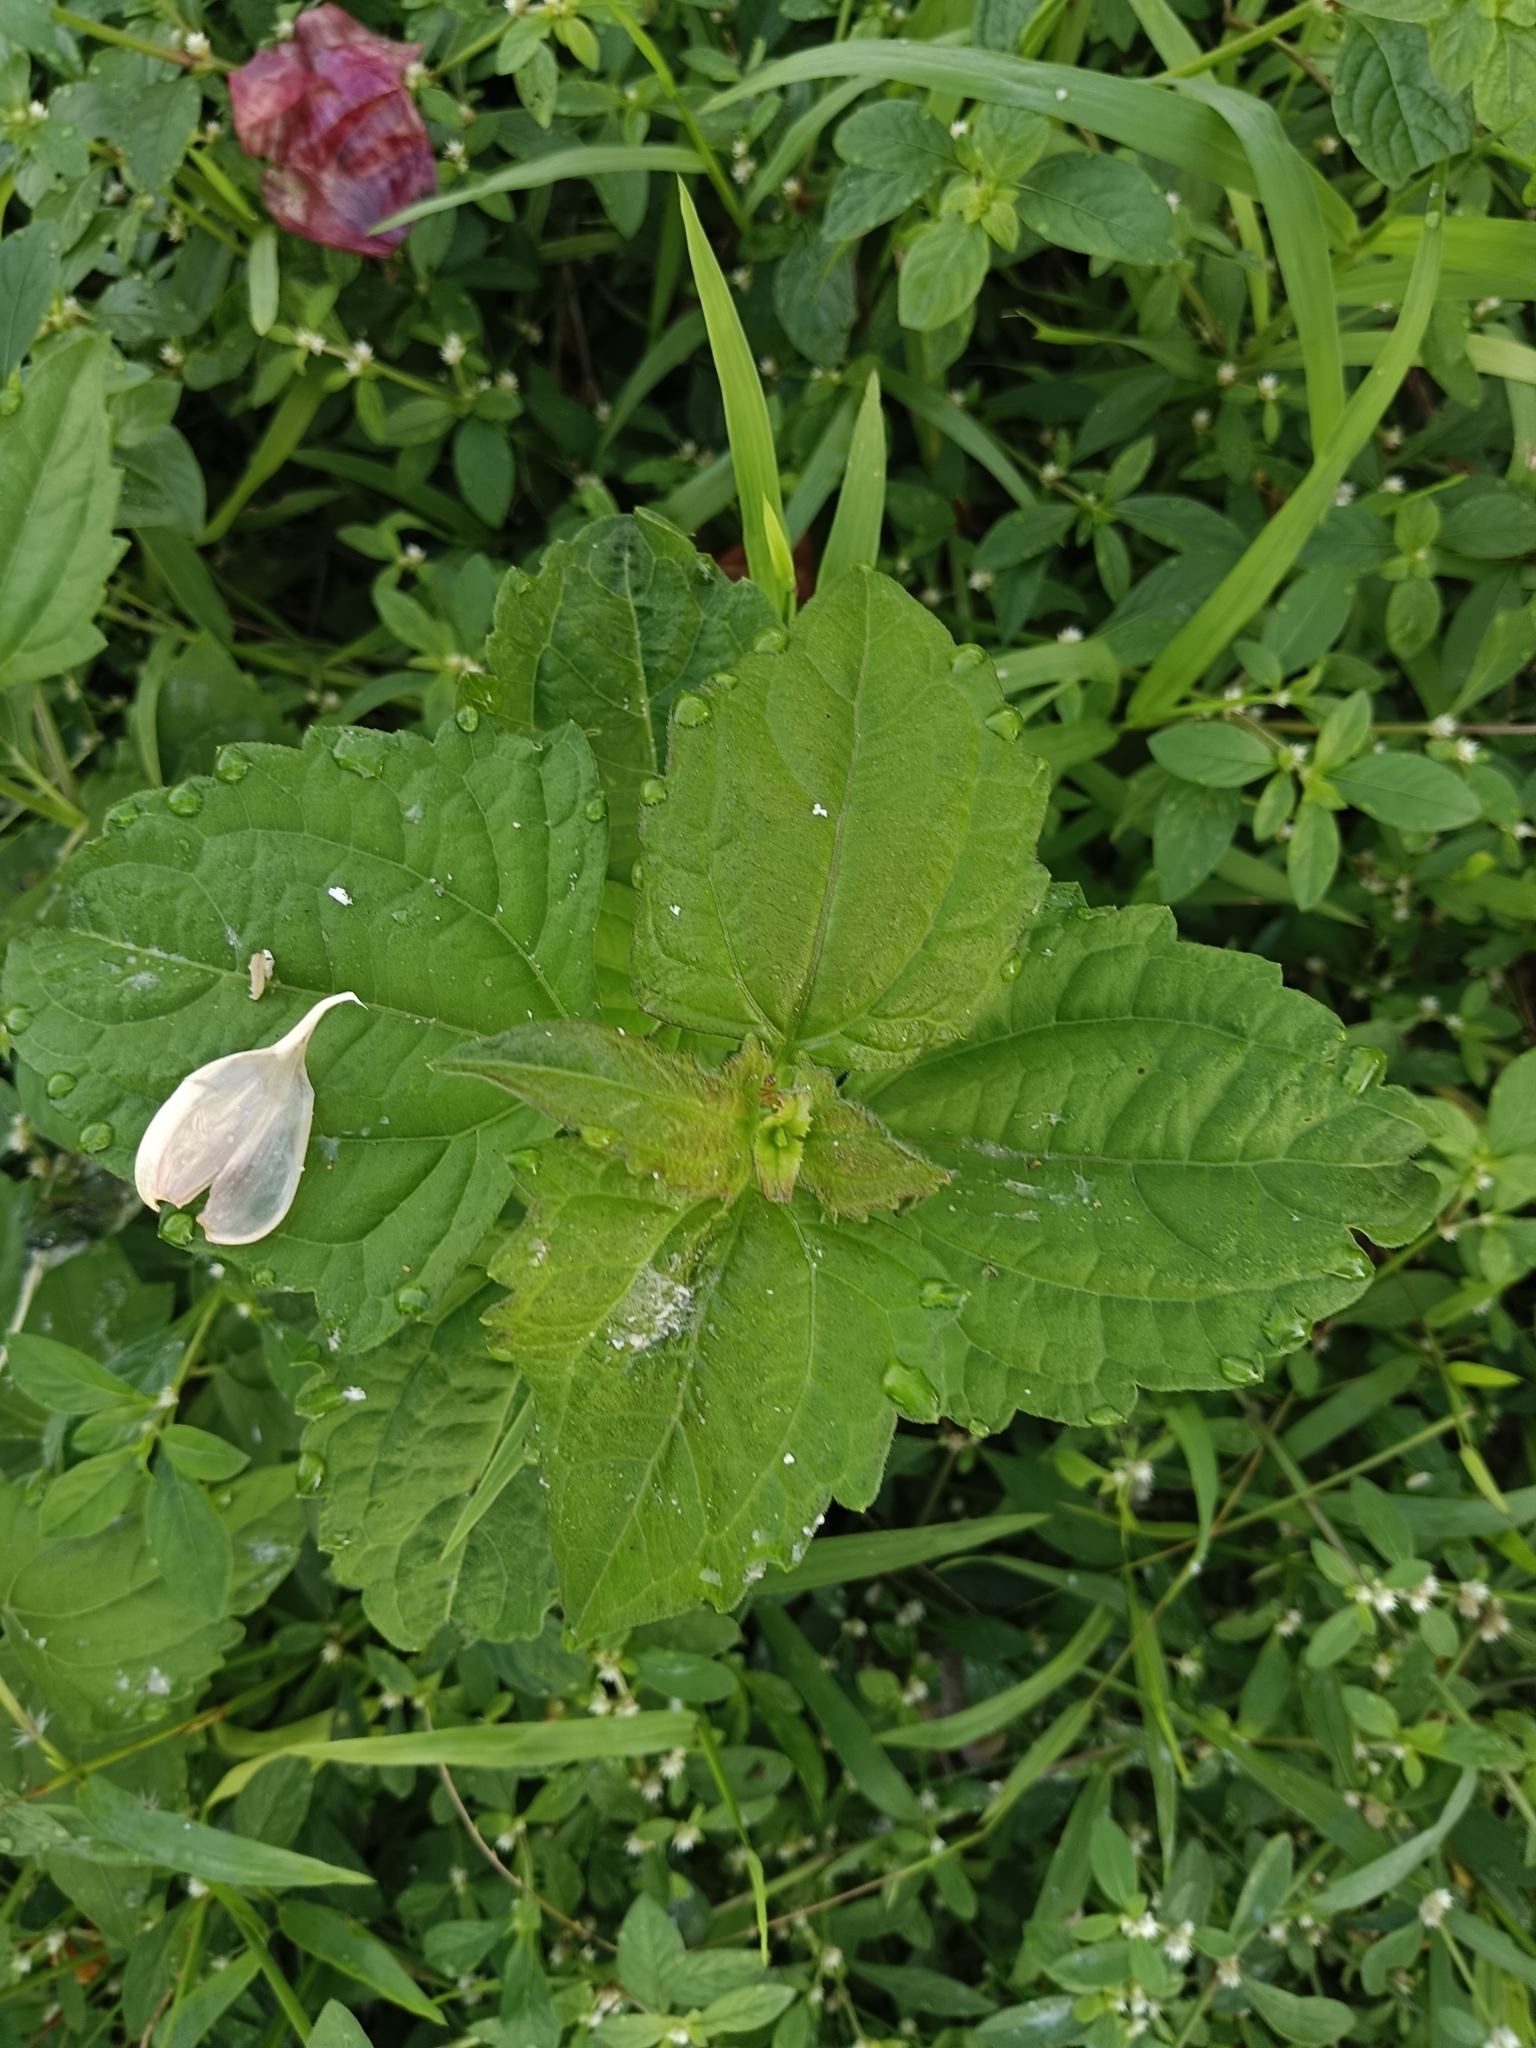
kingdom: Plantae
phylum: Tracheophyta
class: Magnoliopsida
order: Asterales
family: Asteraceae
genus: Chromolaena
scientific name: Chromolaena odorata
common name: Siamweed
